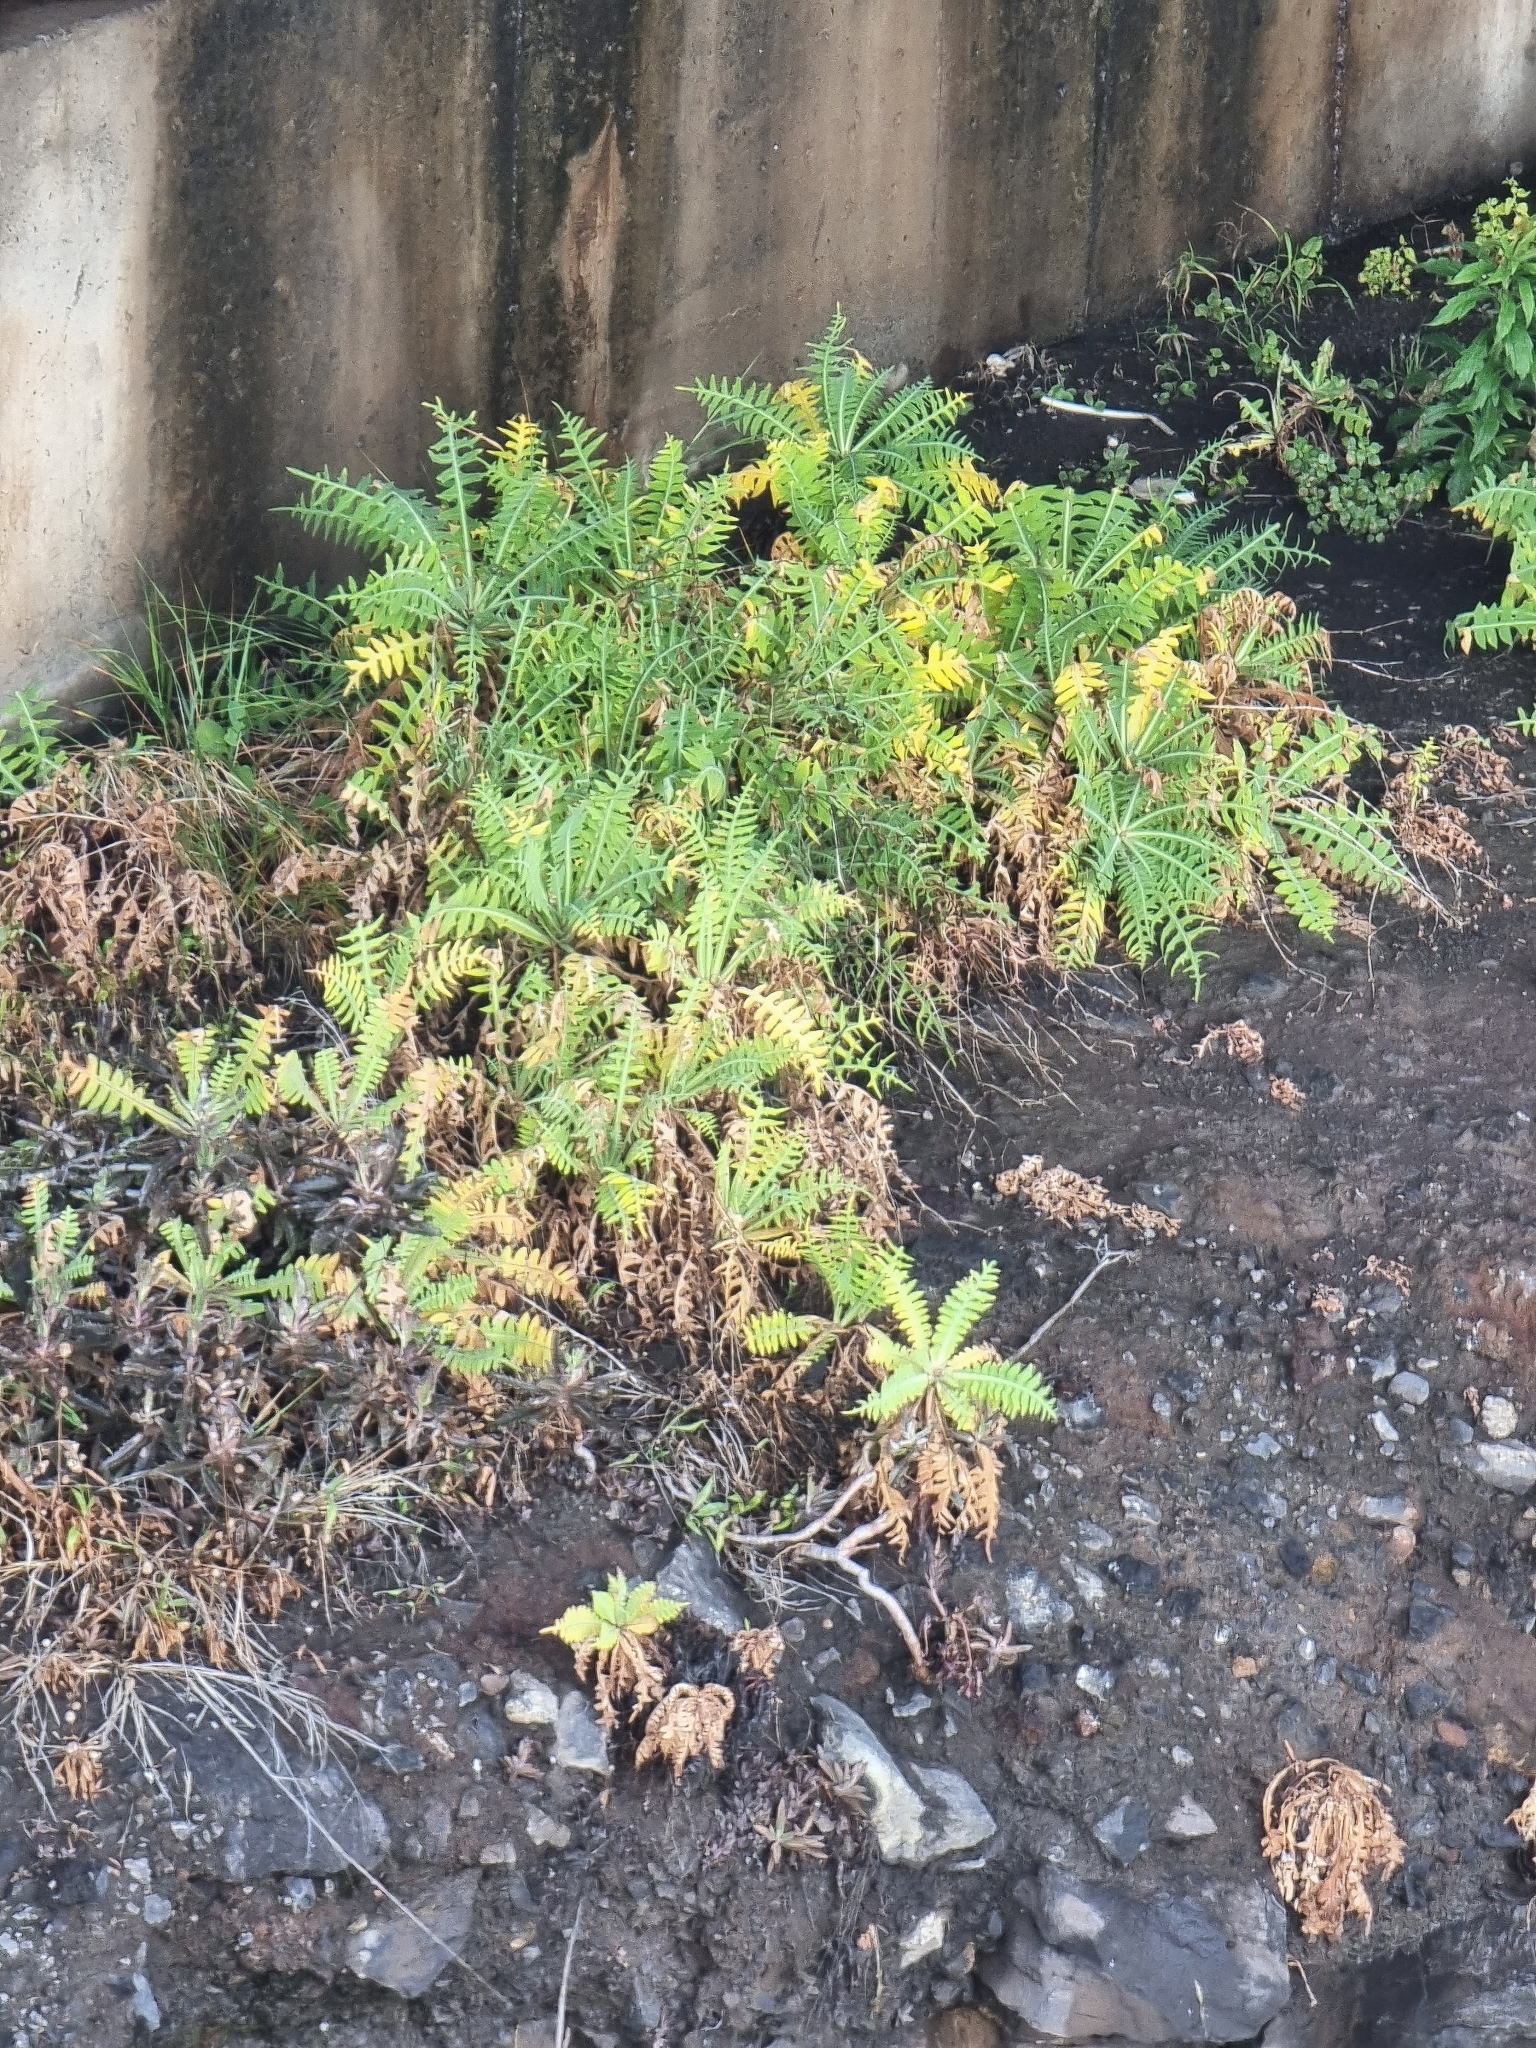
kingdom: Plantae
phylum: Tracheophyta
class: Magnoliopsida
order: Asterales
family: Asteraceae
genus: Sonchus
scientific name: Sonchus ustulatus
